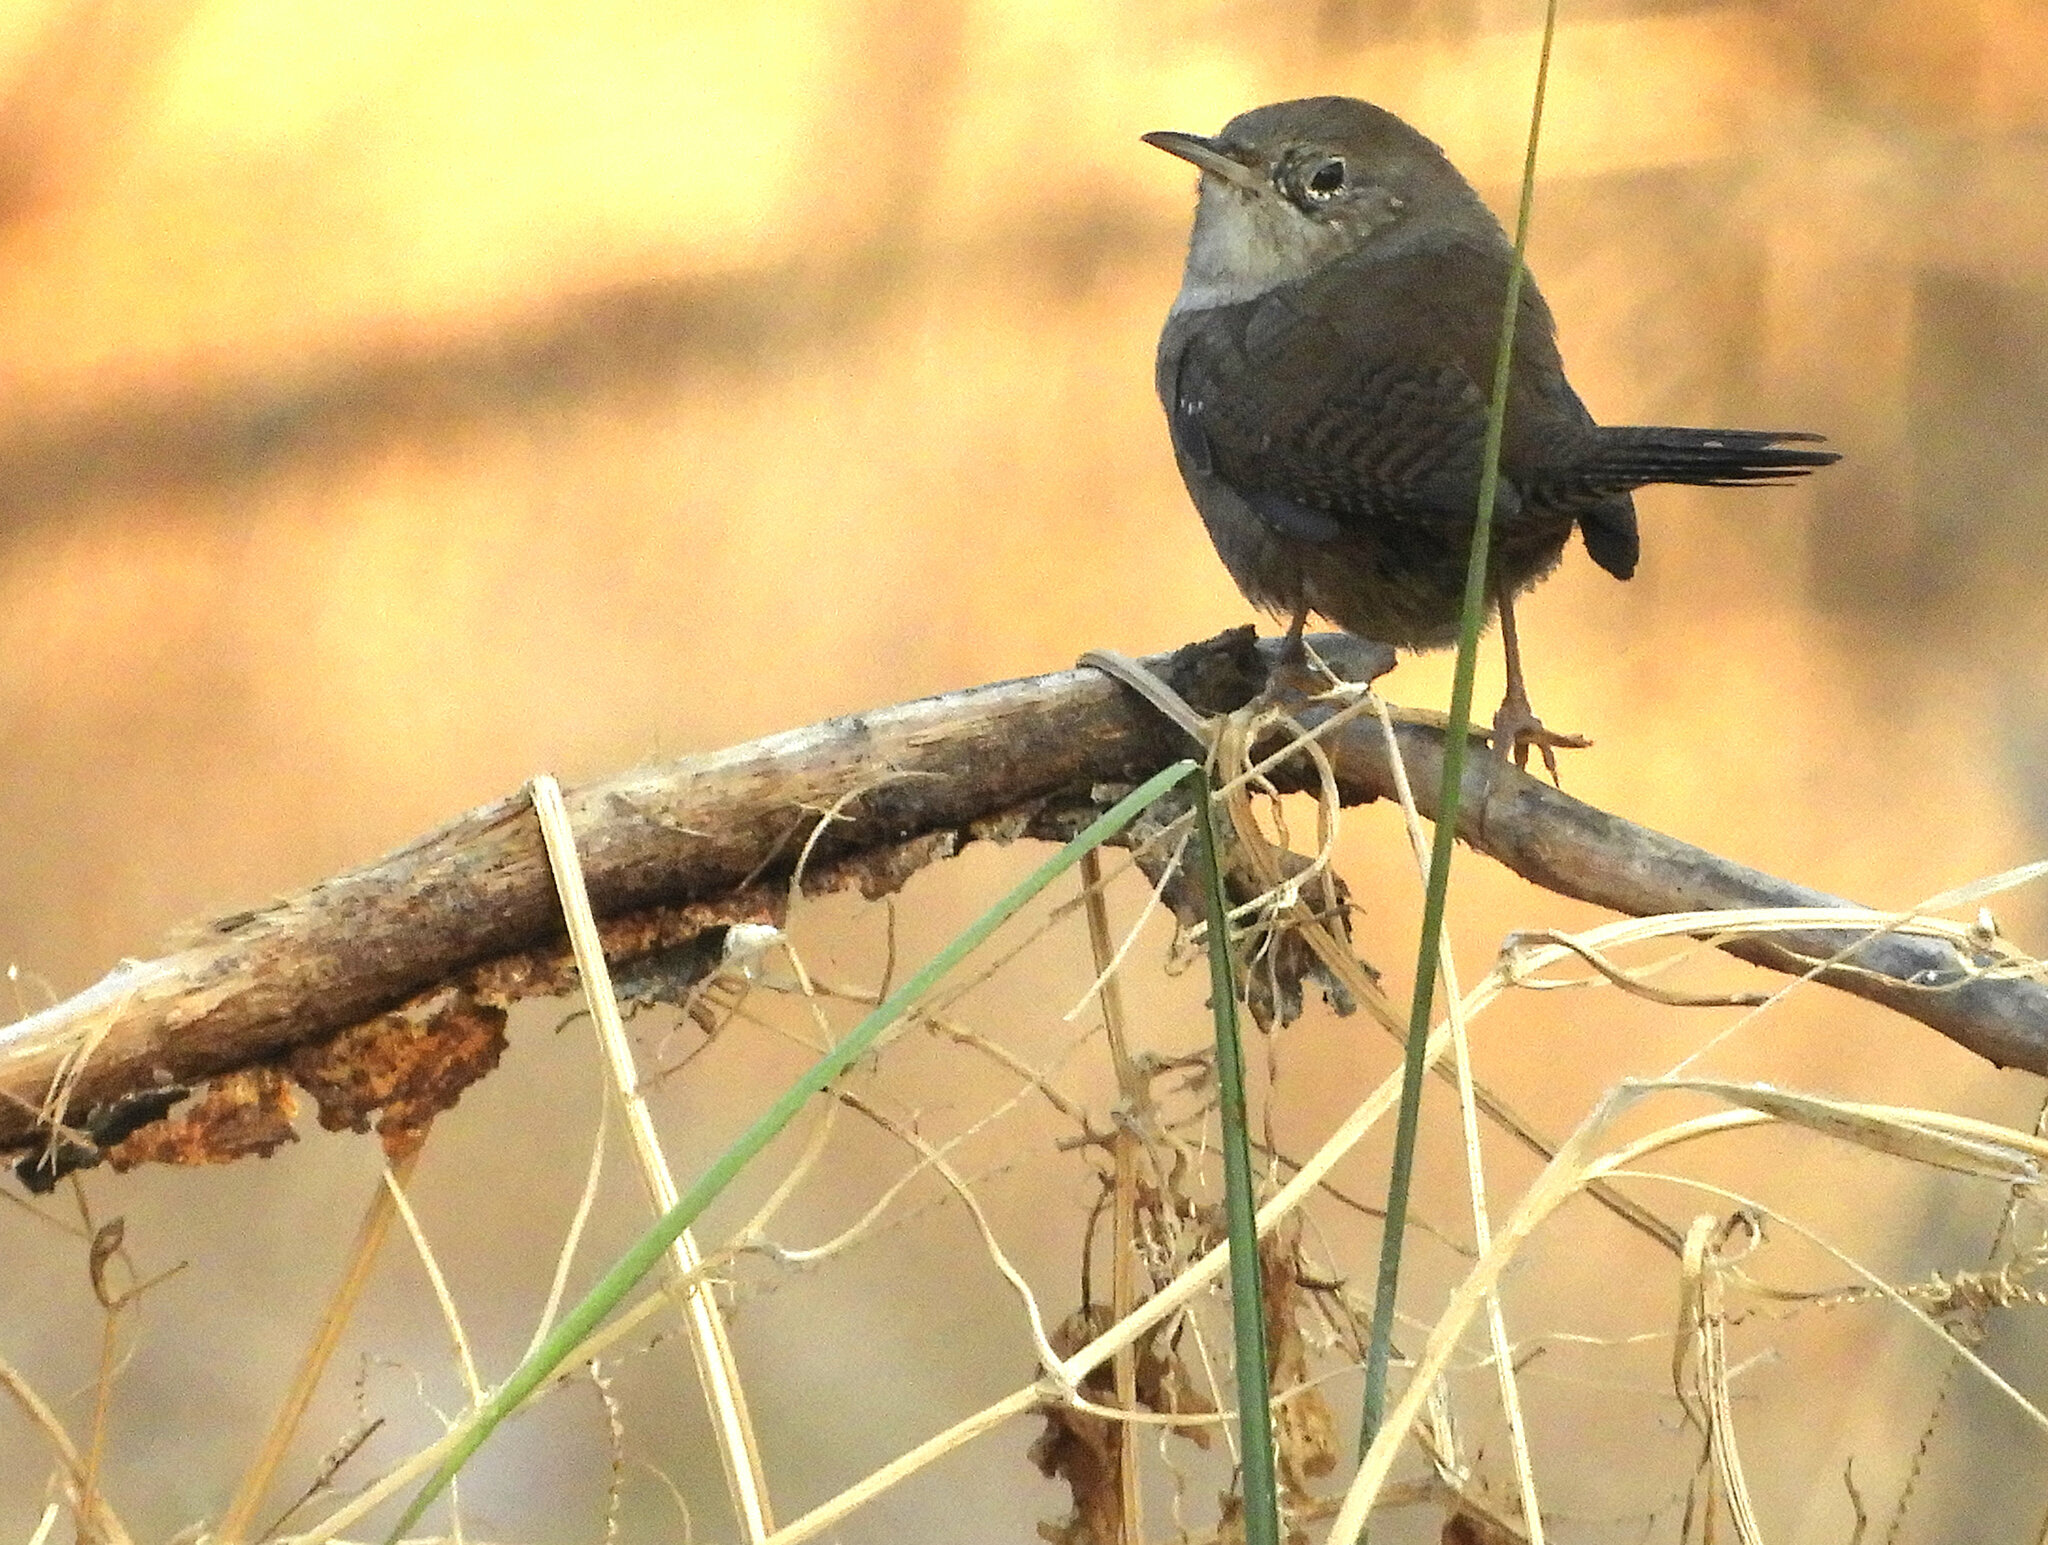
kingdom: Animalia
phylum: Chordata
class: Aves
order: Passeriformes
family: Troglodytidae
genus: Troglodytes
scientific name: Troglodytes aedon
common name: House wren
